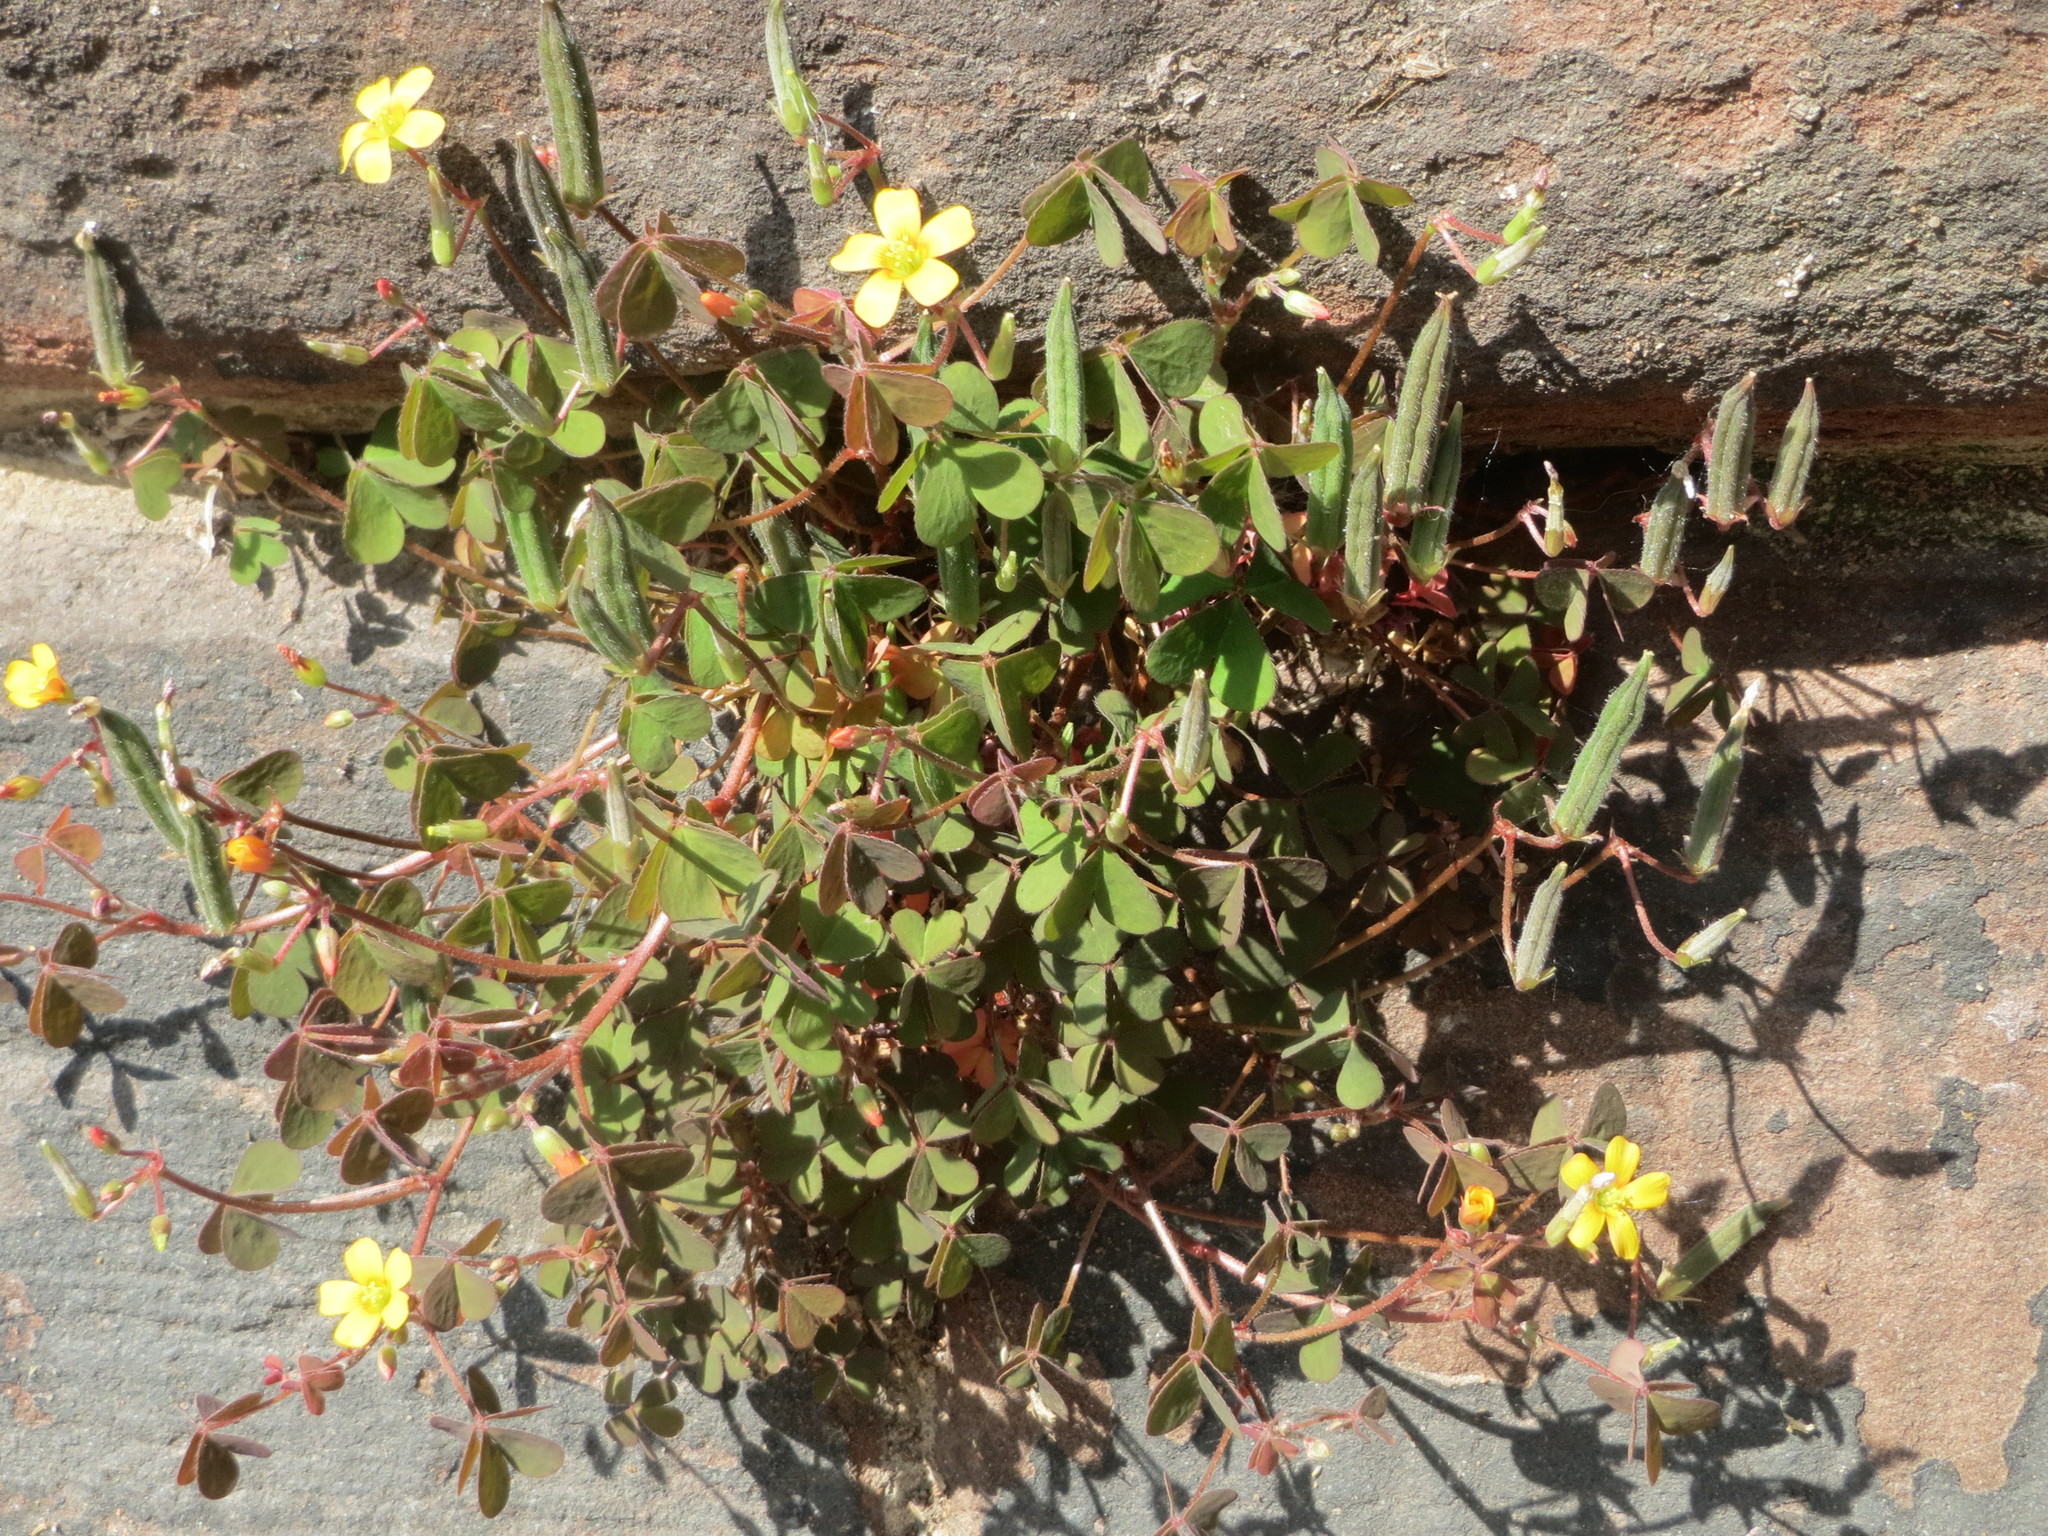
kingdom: Plantae
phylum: Tracheophyta
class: Magnoliopsida
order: Oxalidales
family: Oxalidaceae
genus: Oxalis
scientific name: Oxalis corniculata
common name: Procumbent yellow-sorrel
